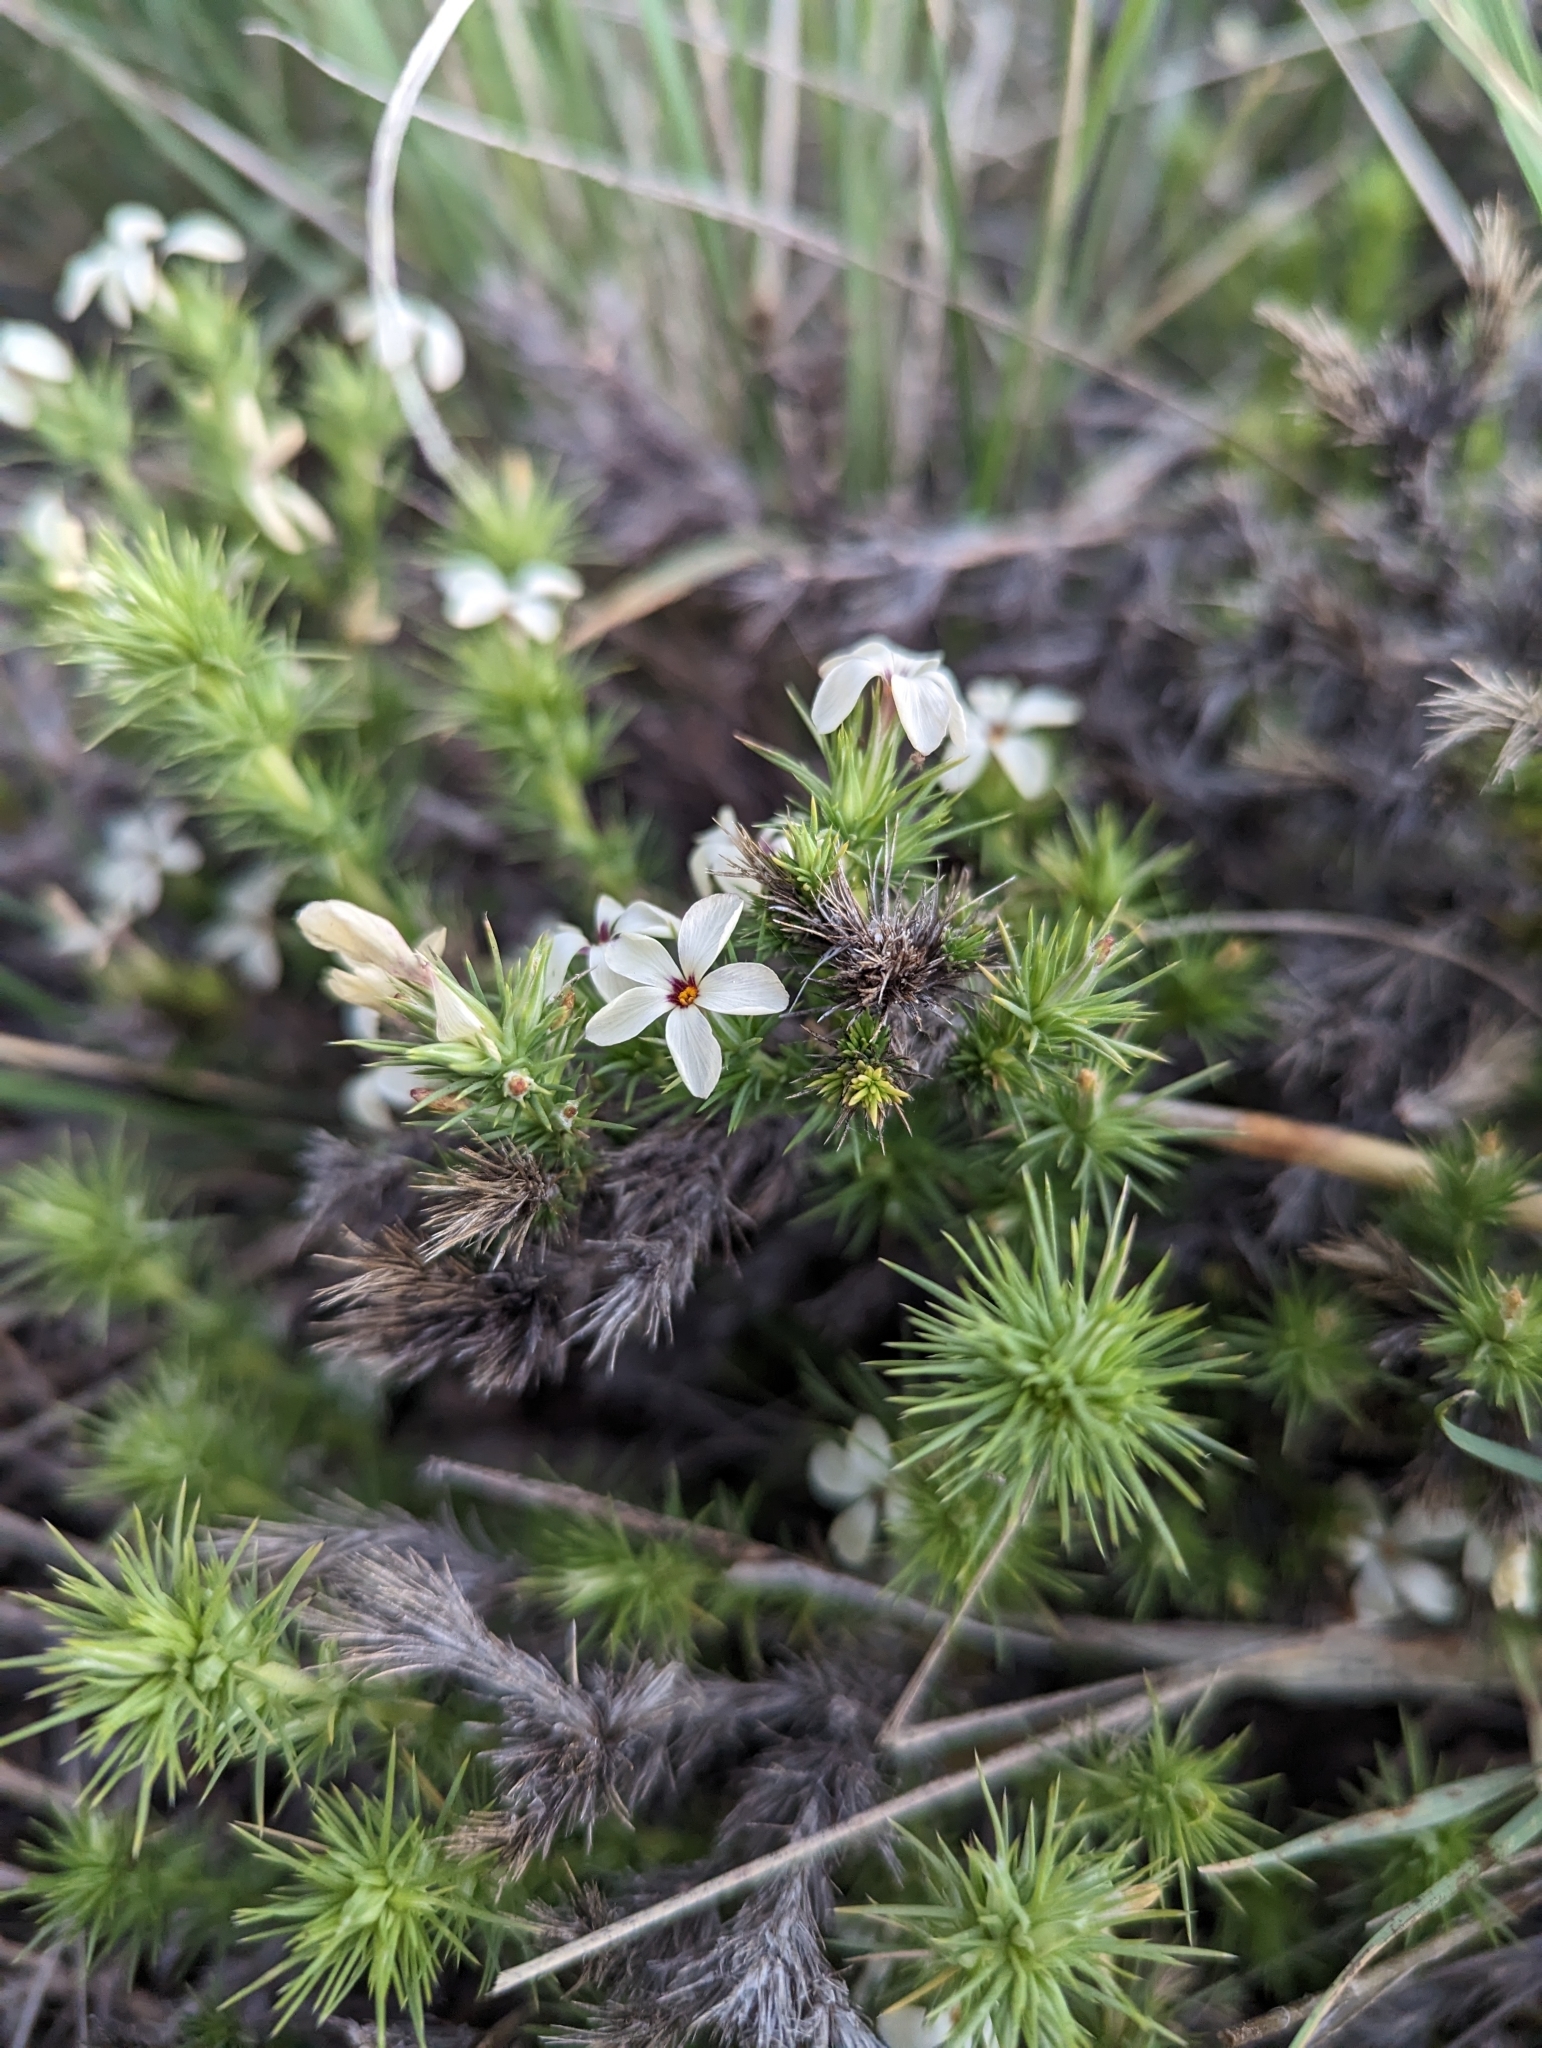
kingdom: Plantae
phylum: Tracheophyta
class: Magnoliopsida
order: Ericales
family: Polemoniaceae
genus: Linanthus
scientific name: Linanthus pungens
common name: Granite prickly phlox
